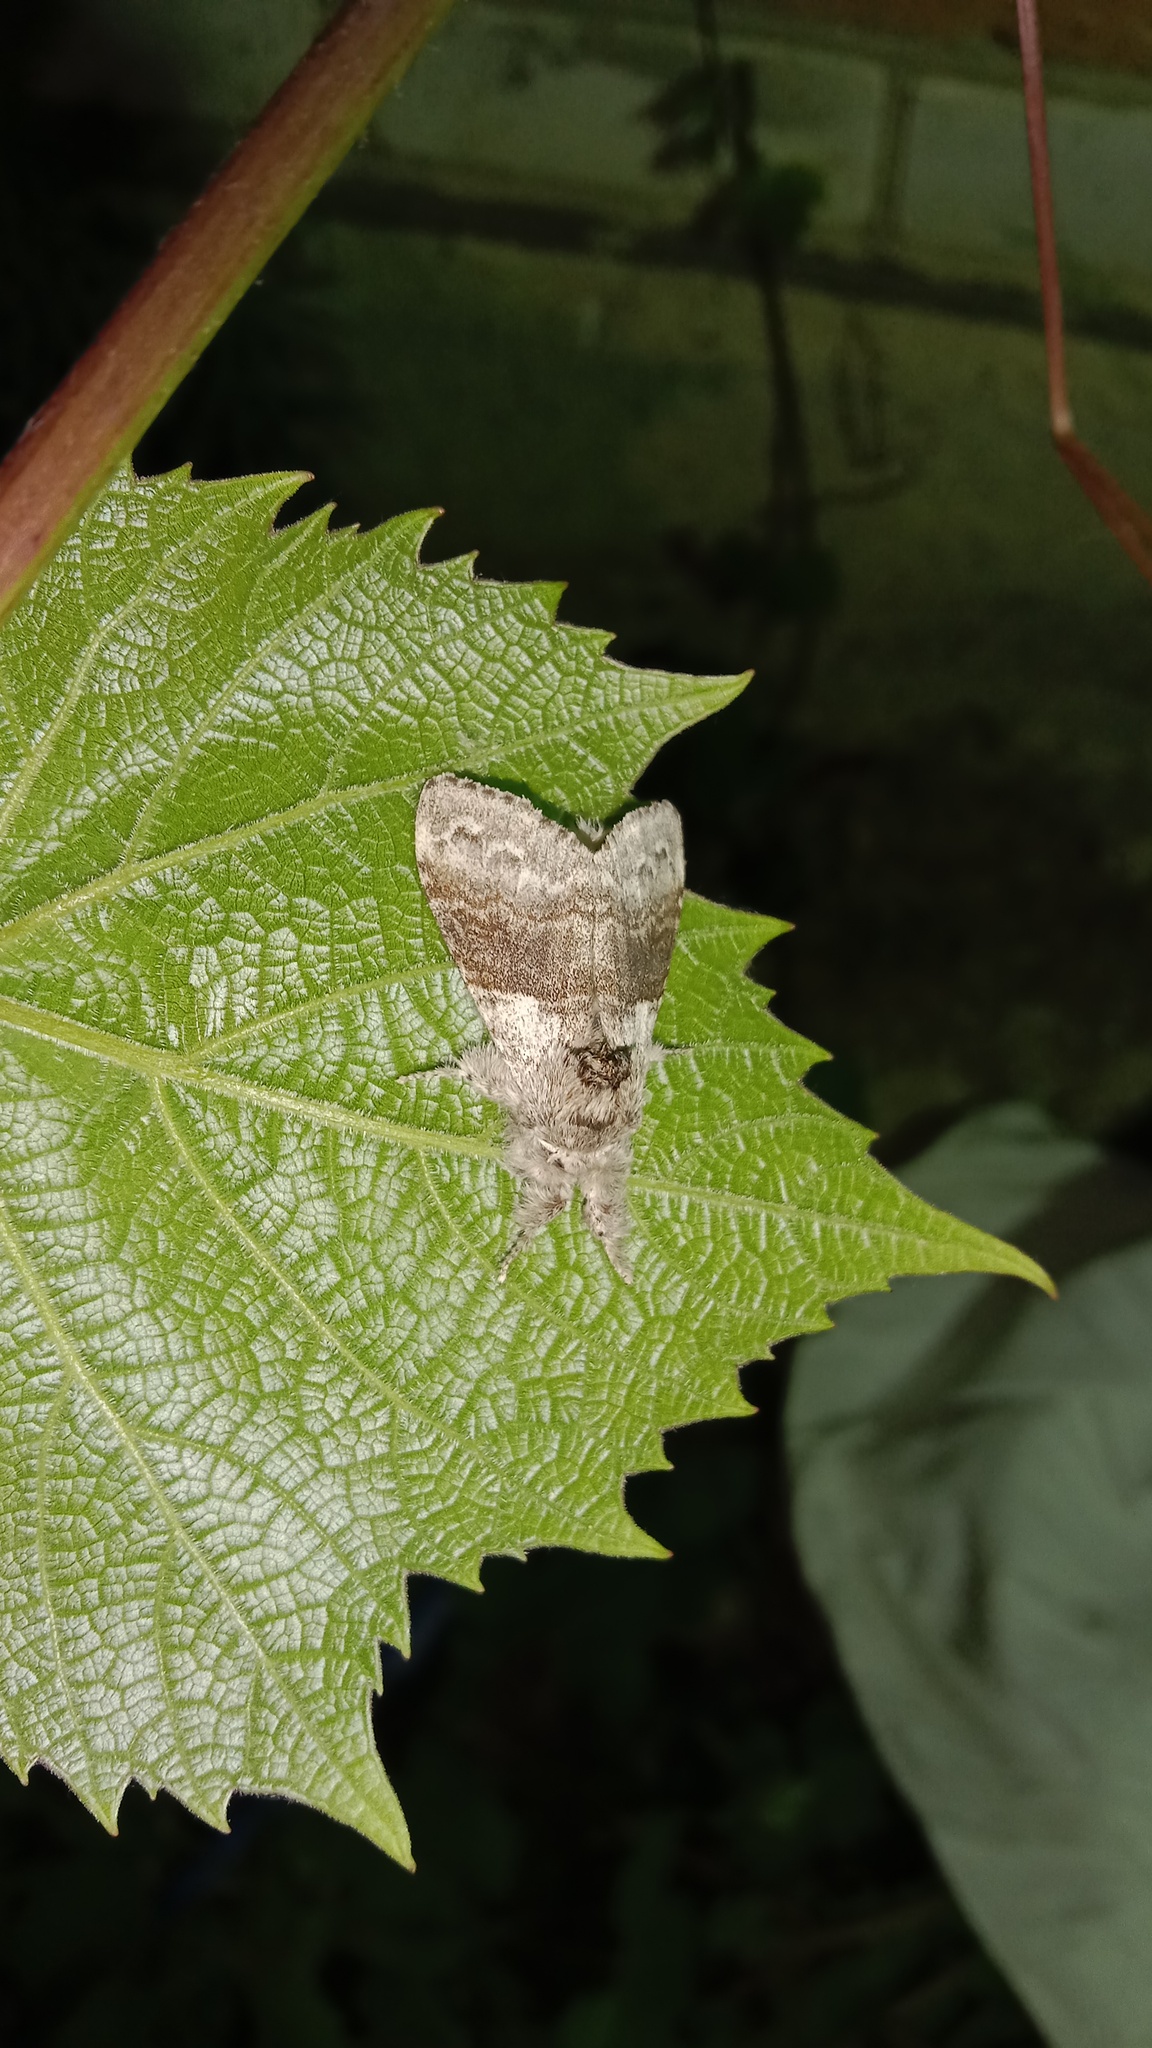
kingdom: Animalia
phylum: Arthropoda
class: Insecta
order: Lepidoptera
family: Erebidae
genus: Calliteara
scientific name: Calliteara pudibunda
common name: Pale tussock
